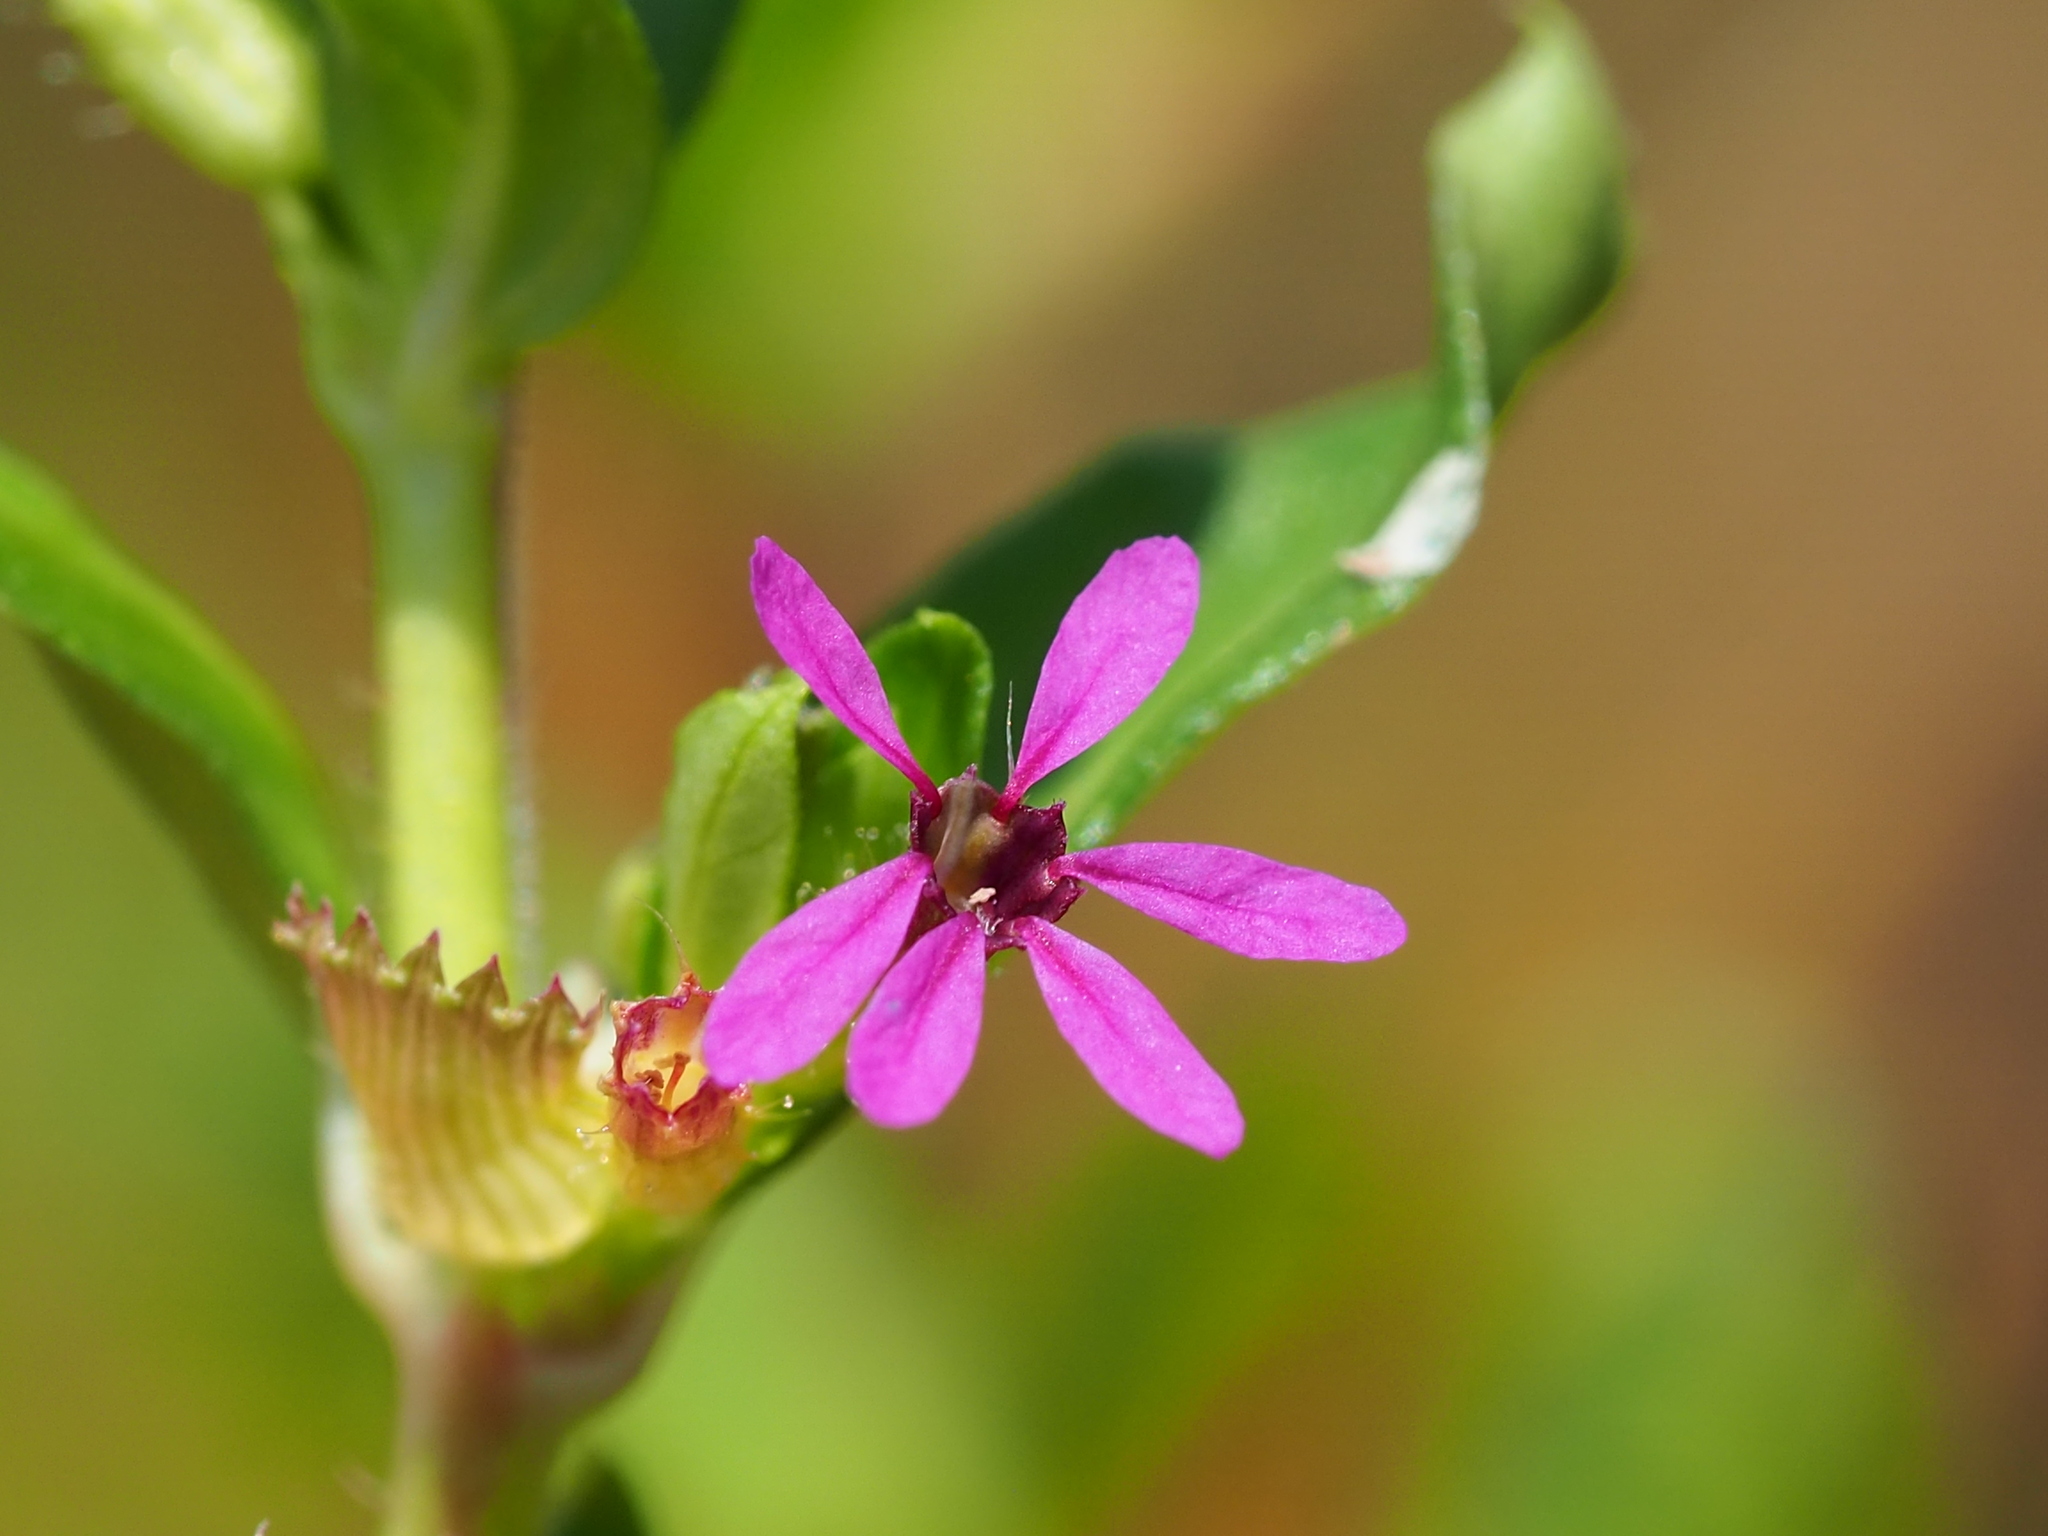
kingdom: Plantae
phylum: Tracheophyta
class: Magnoliopsida
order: Myrtales
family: Lythraceae
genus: Cuphea
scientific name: Cuphea carthagenensis
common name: Colombian waxweed
